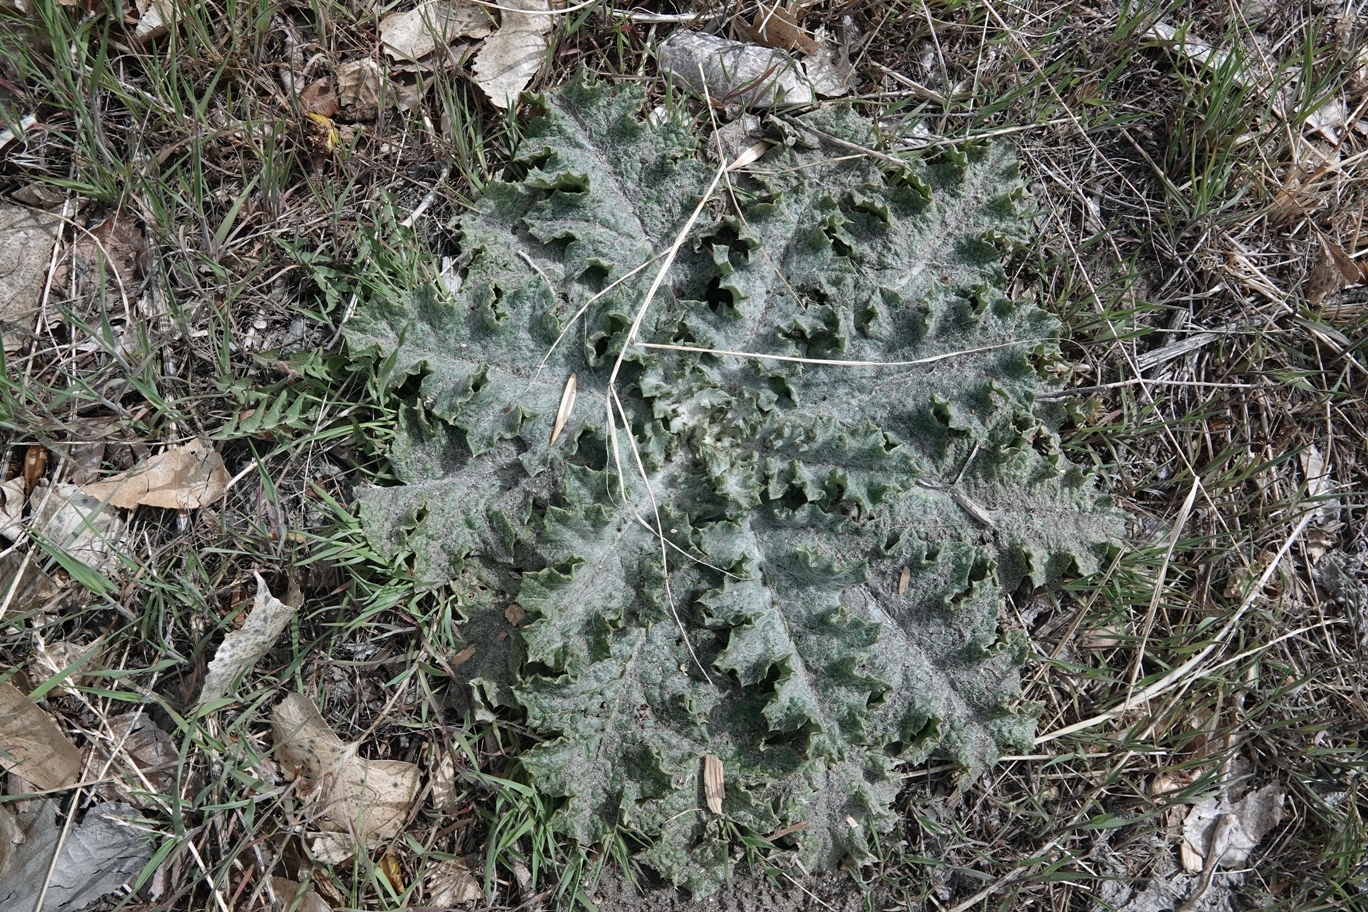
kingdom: Plantae
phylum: Tracheophyta
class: Magnoliopsida
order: Asterales
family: Asteraceae
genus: Cirsium
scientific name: Cirsium vulgare
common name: Bull thistle
